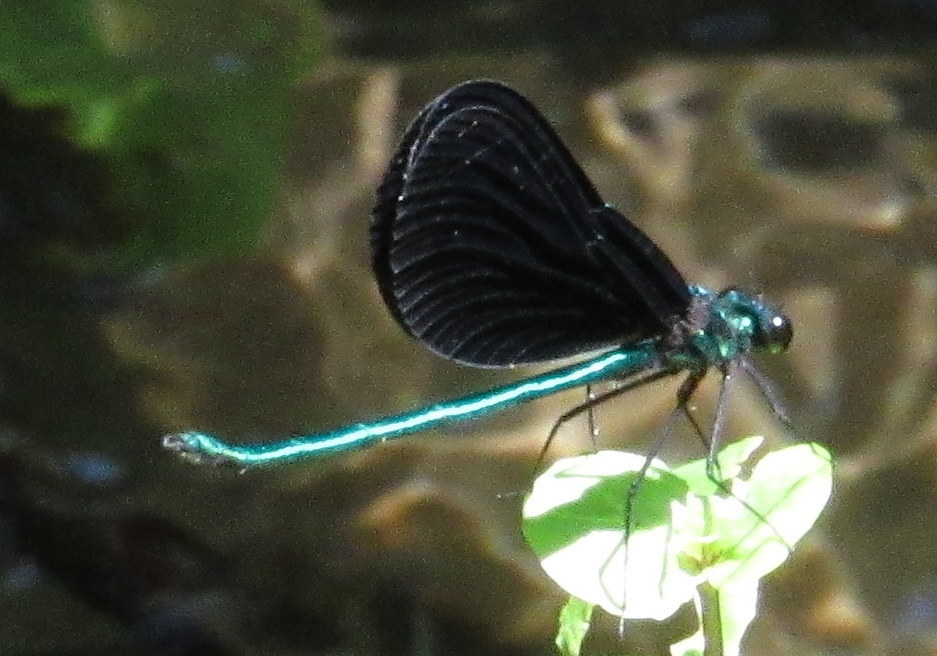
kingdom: Animalia
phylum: Arthropoda
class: Insecta
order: Odonata
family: Calopterygidae
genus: Calopteryx
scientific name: Calopteryx maculata
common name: Ebony jewelwing
